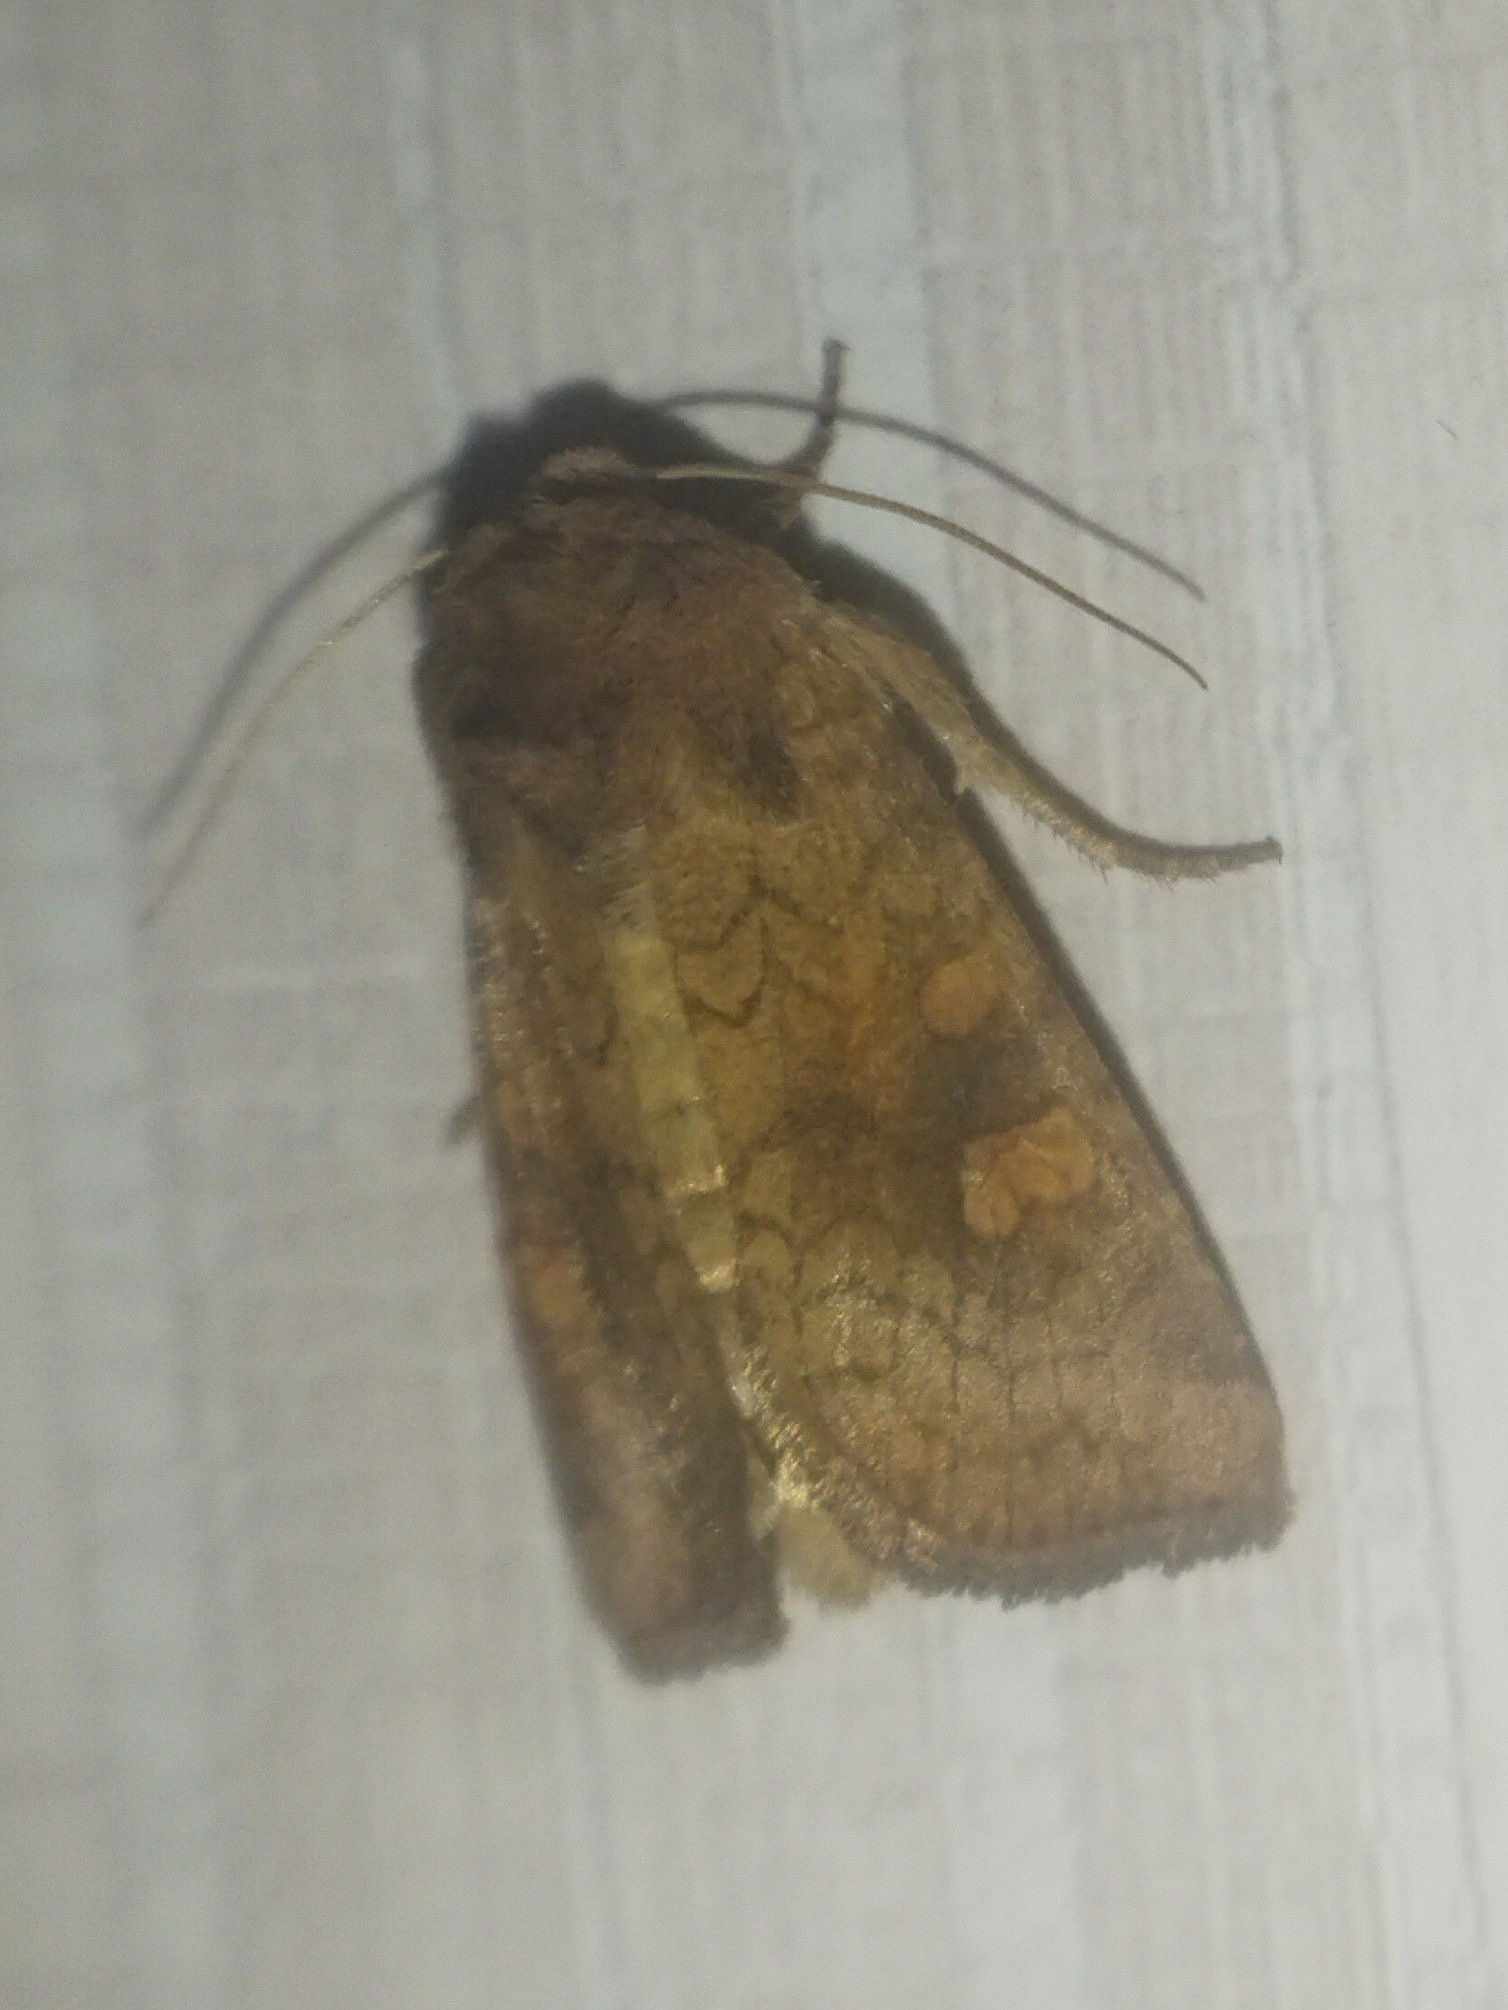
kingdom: Animalia
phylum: Arthropoda
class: Insecta
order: Lepidoptera
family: Noctuidae
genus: Amphipoea
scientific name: Amphipoea fucosa
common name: Saltern ear
